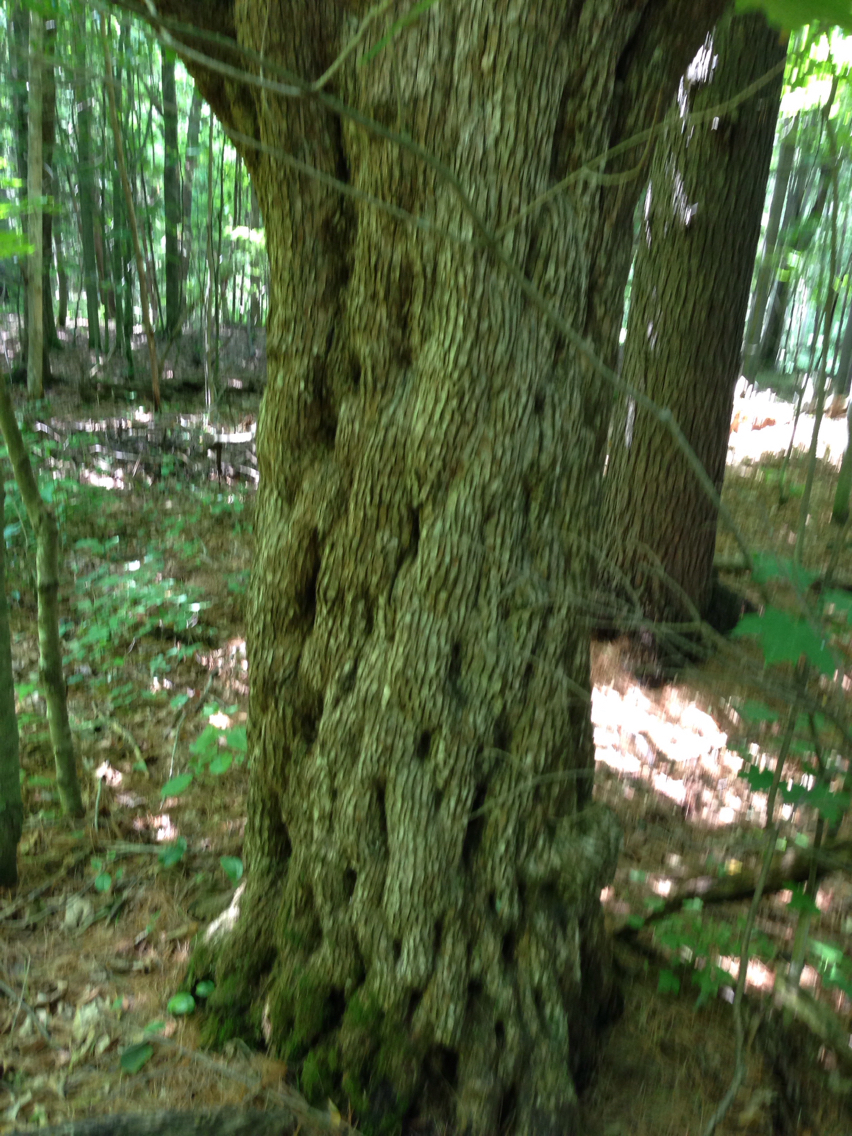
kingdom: Plantae
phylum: Tracheophyta
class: Magnoliopsida
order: Fagales
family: Betulaceae
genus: Ostrya
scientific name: Ostrya virginiana
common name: Ironwood
